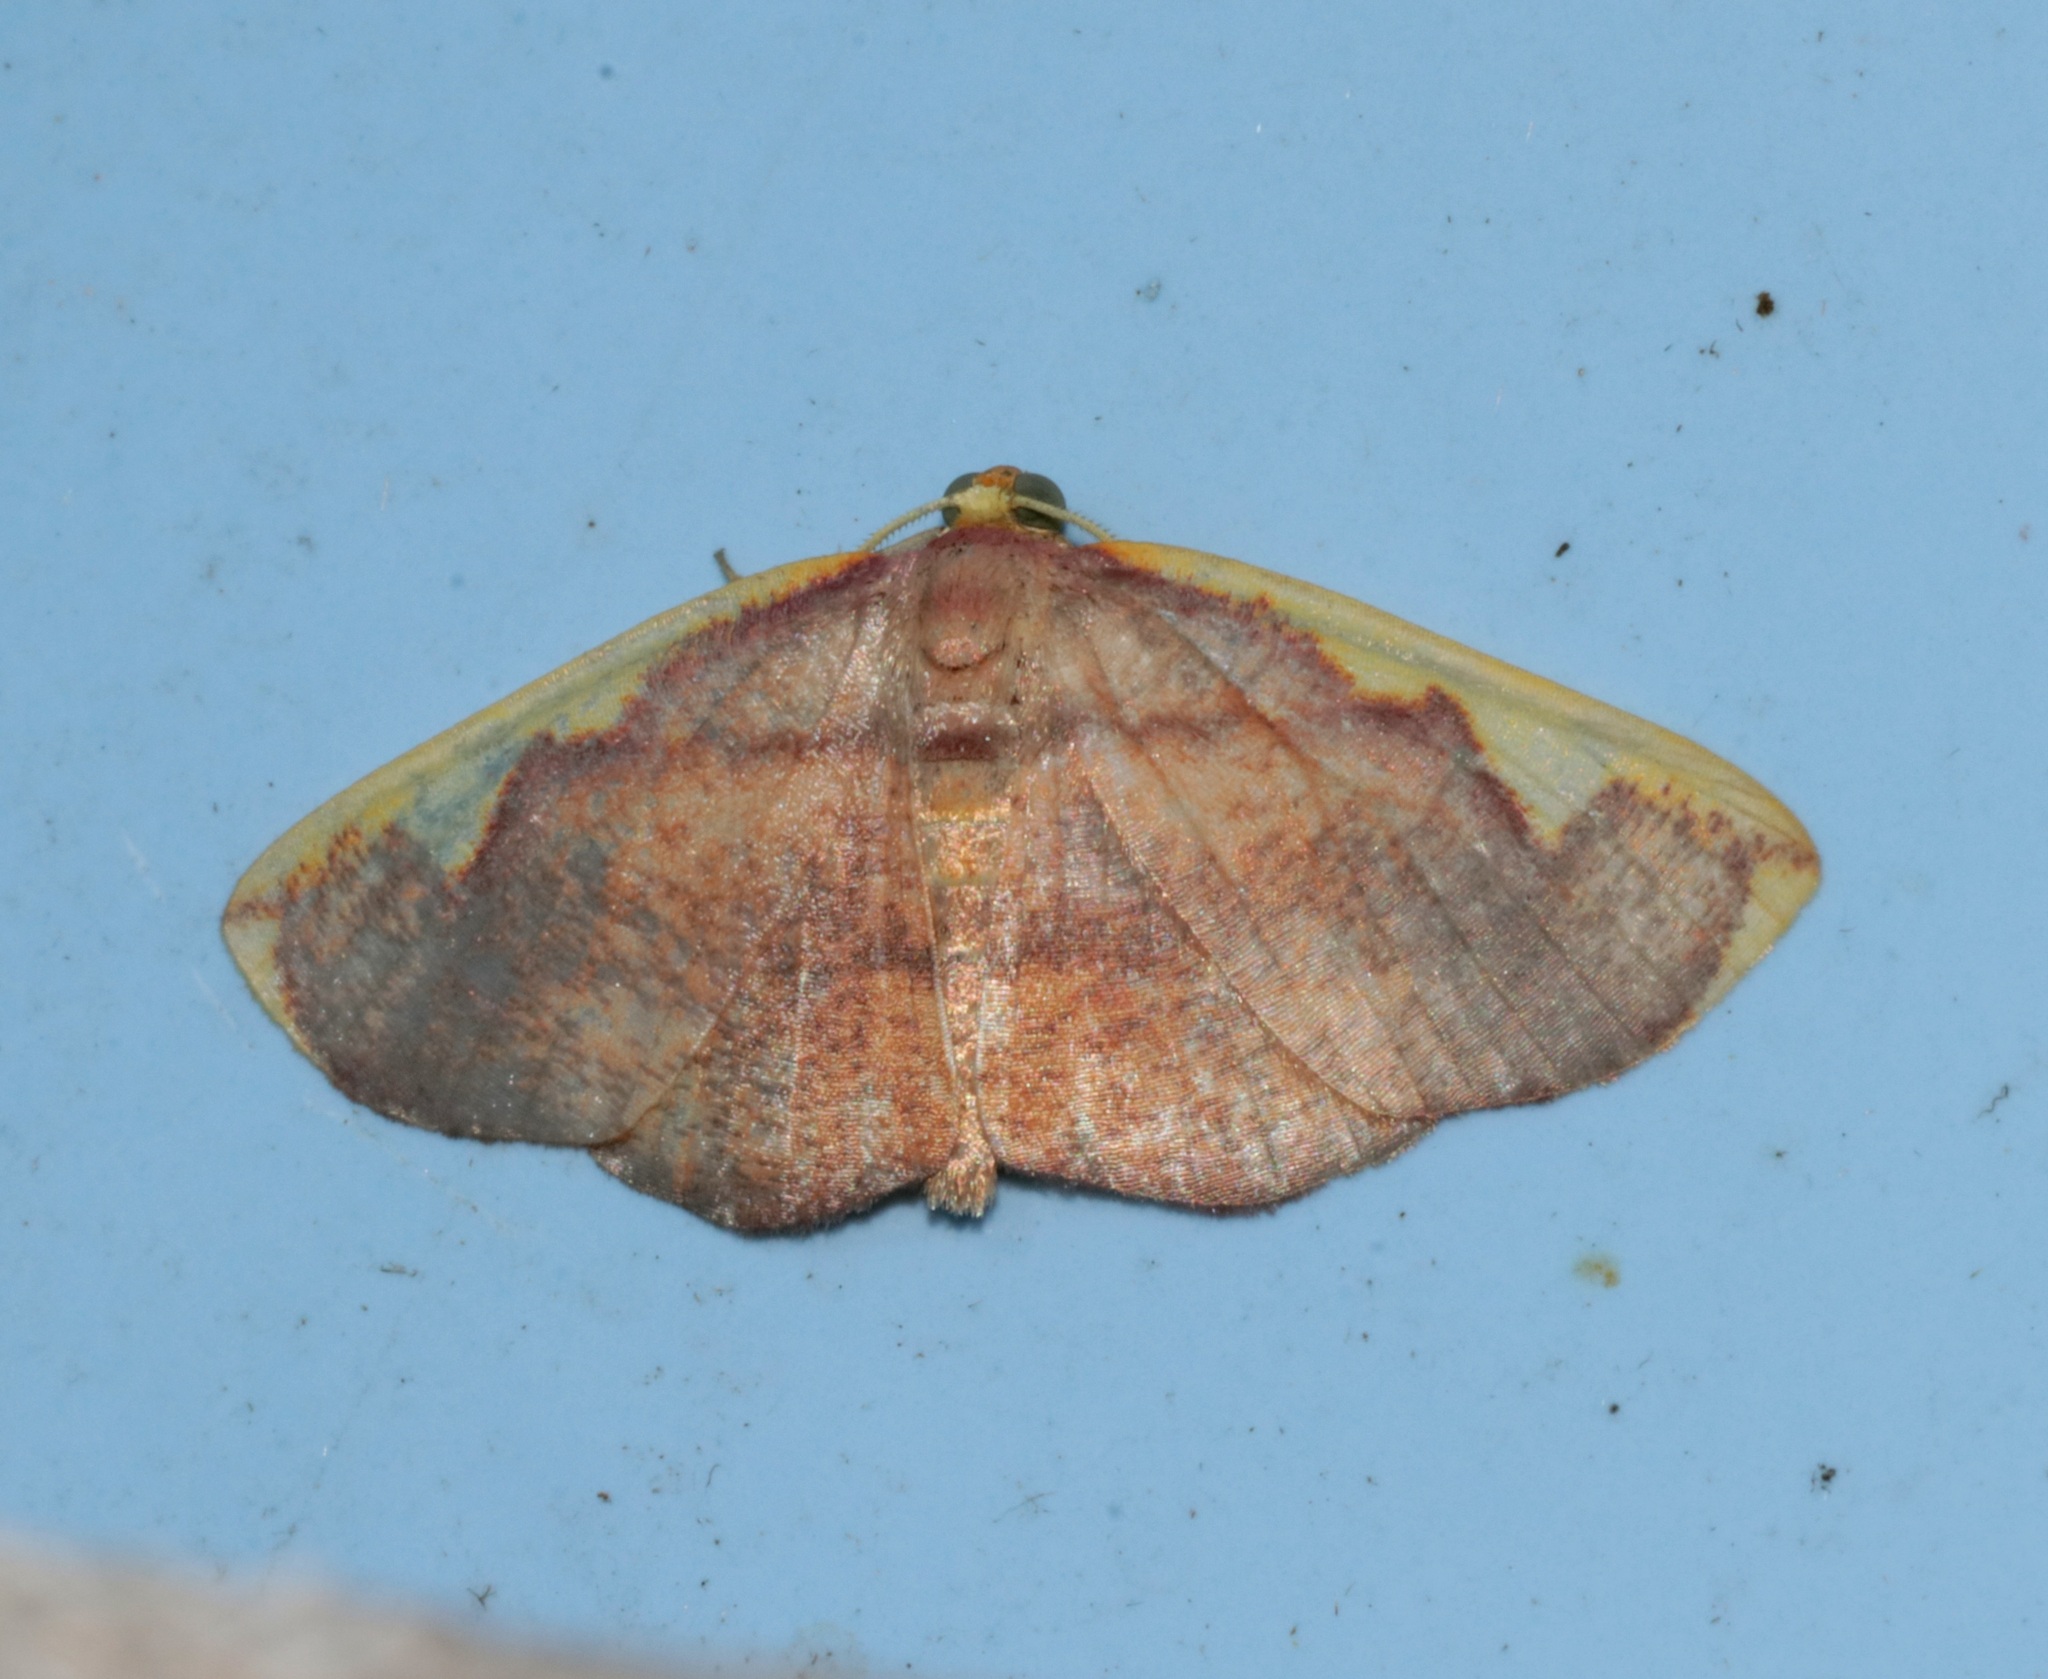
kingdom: Animalia
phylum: Arthropoda
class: Insecta
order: Lepidoptera
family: Geometridae
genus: Nothomiza
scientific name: Nothomiza flavicosta
